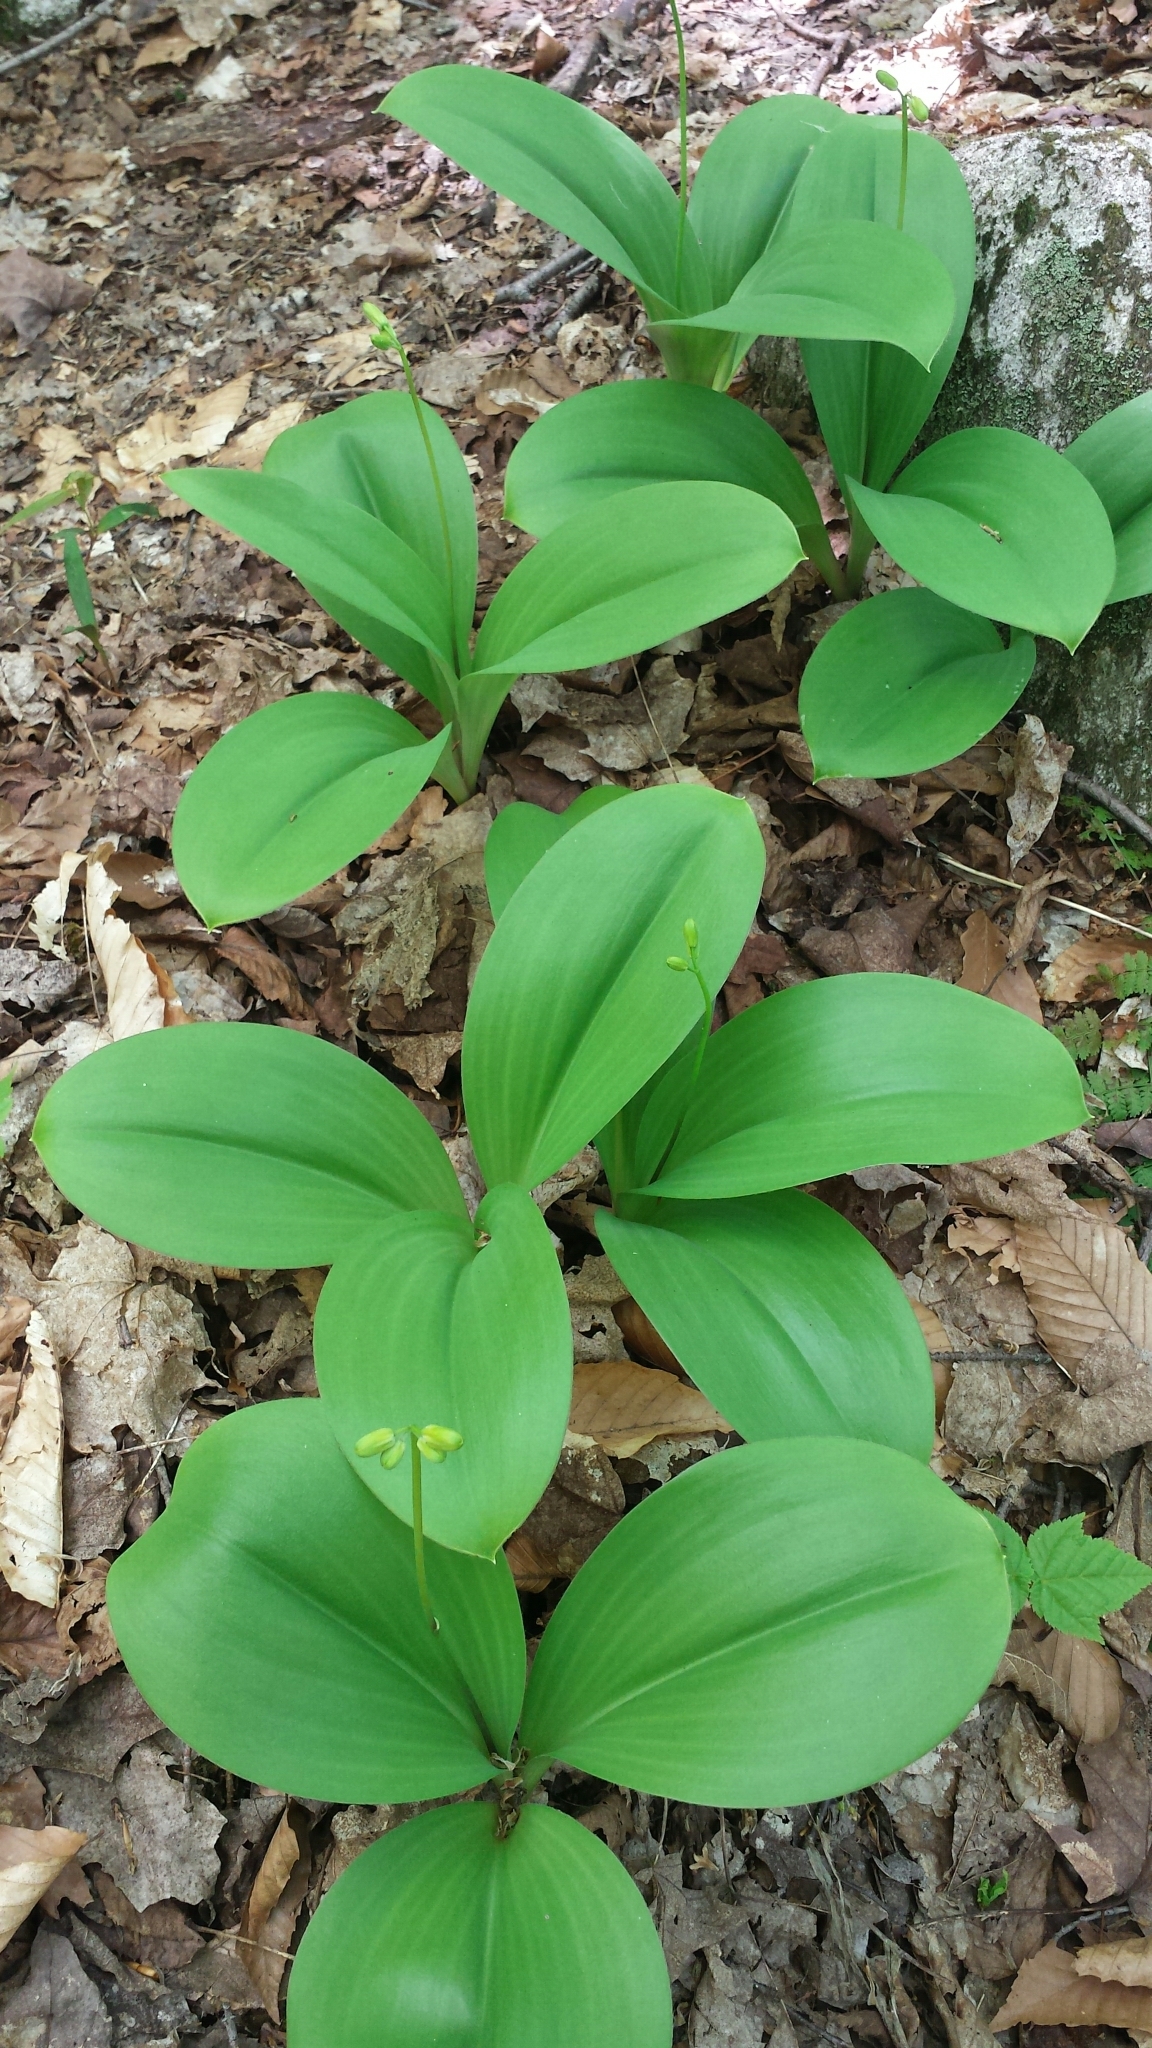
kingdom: Plantae
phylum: Tracheophyta
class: Liliopsida
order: Liliales
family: Liliaceae
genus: Clintonia
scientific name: Clintonia borealis
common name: Yellow clintonia
